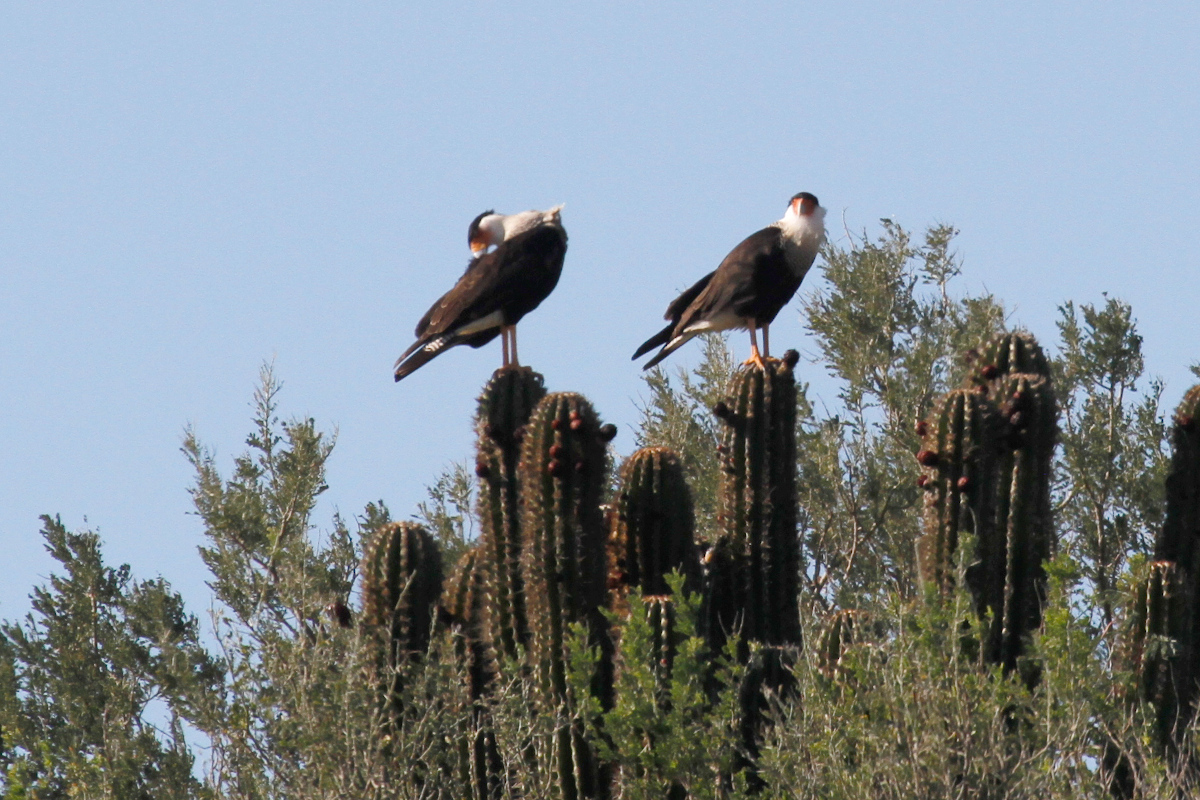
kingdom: Animalia
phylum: Chordata
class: Aves
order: Falconiformes
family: Falconidae
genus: Caracara
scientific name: Caracara plancus
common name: Southern caracara
